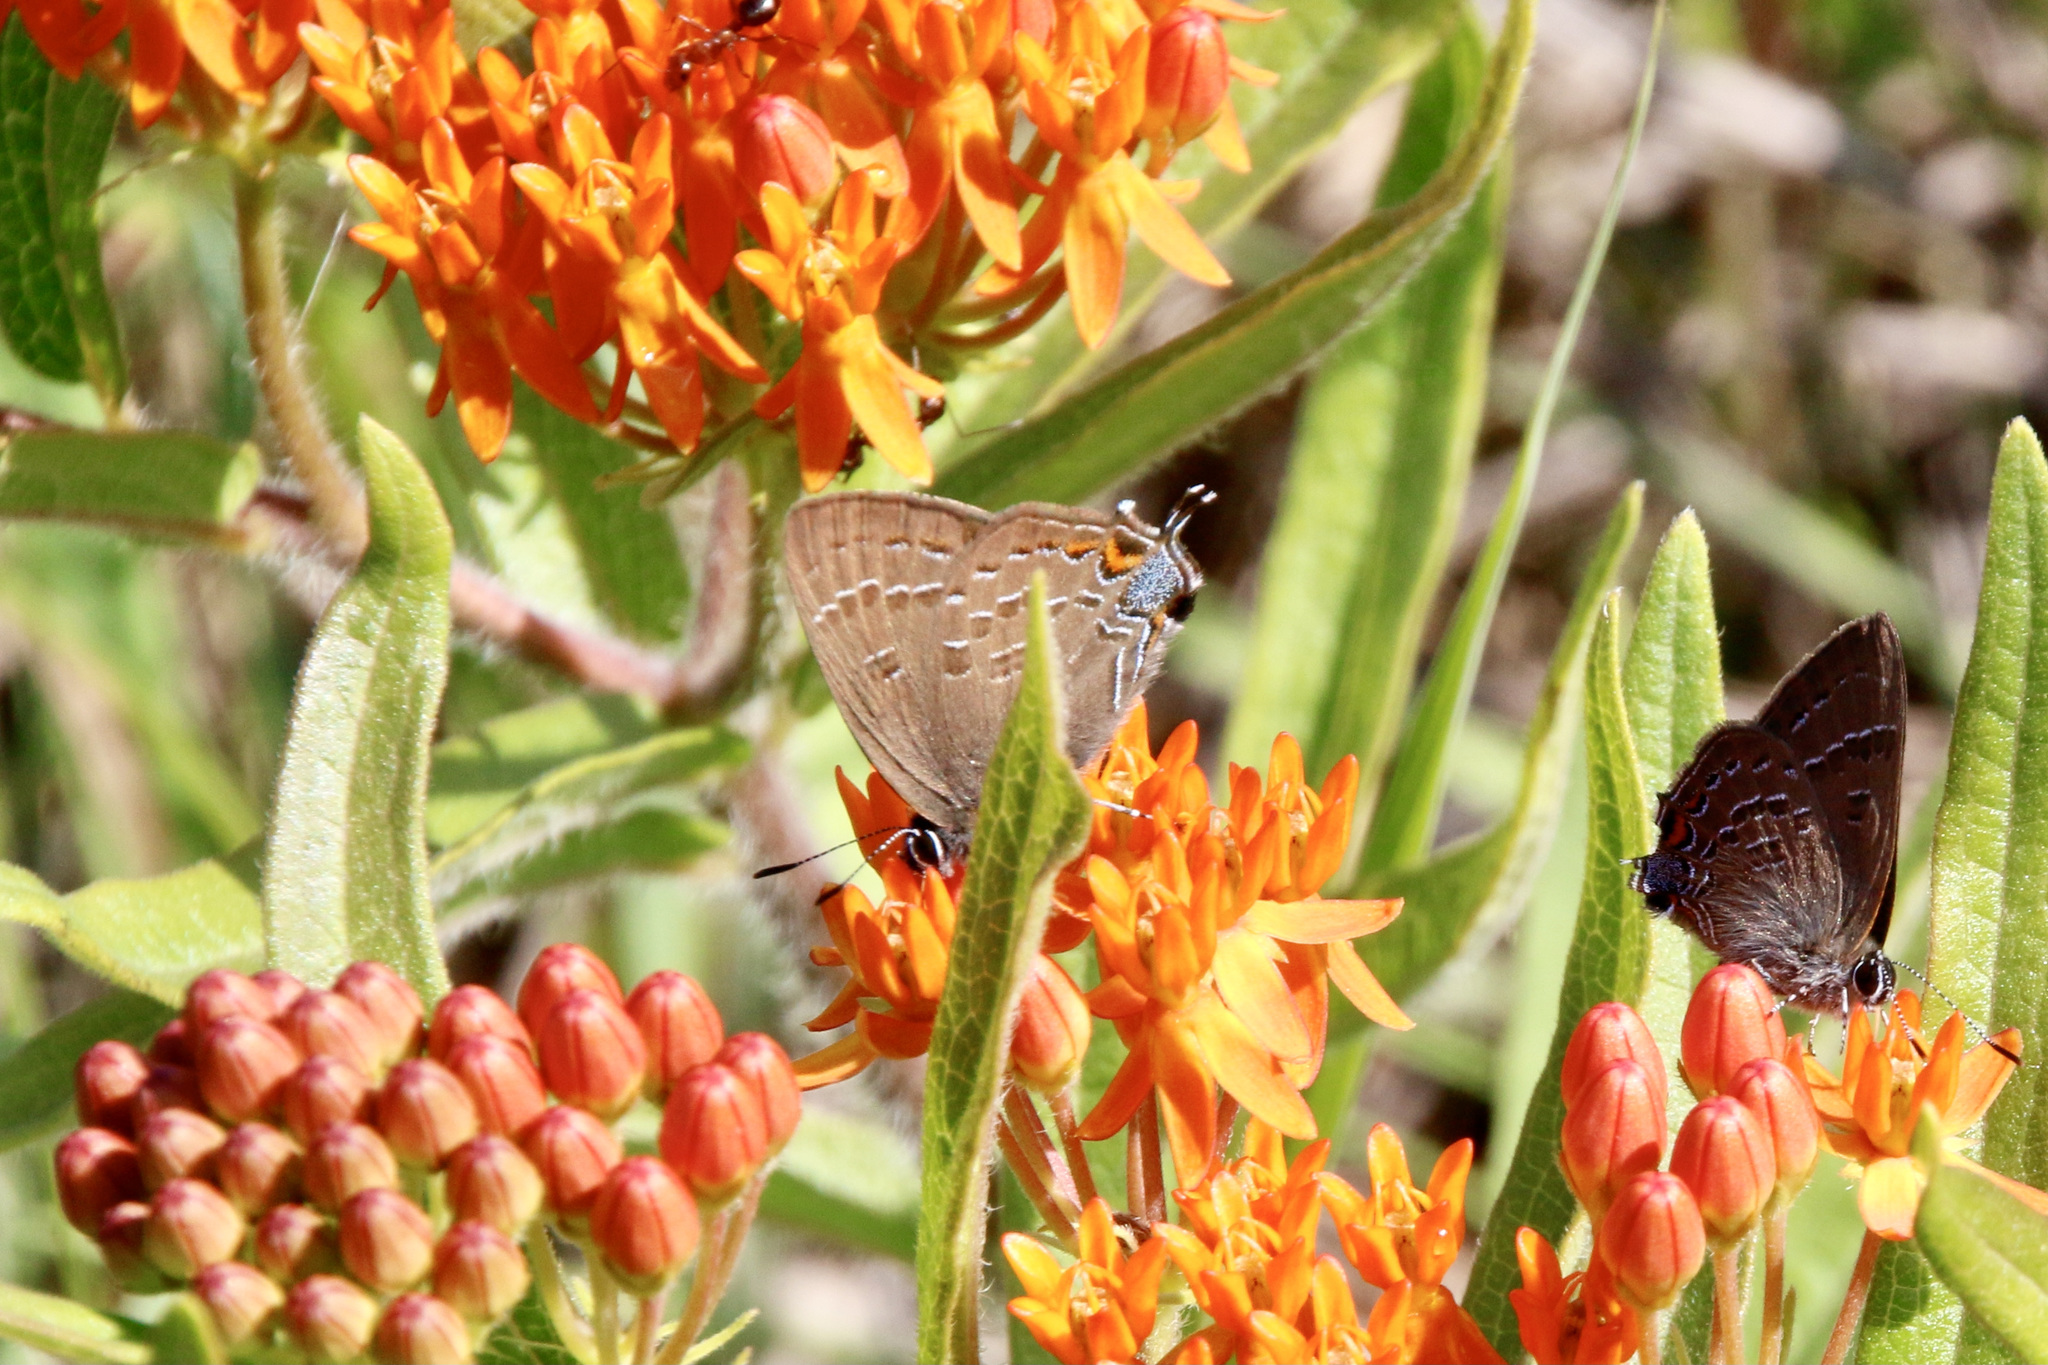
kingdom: Animalia
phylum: Arthropoda
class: Insecta
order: Lepidoptera
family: Lycaenidae
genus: Satyrium
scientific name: Satyrium calanus
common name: Banded hairstreak
